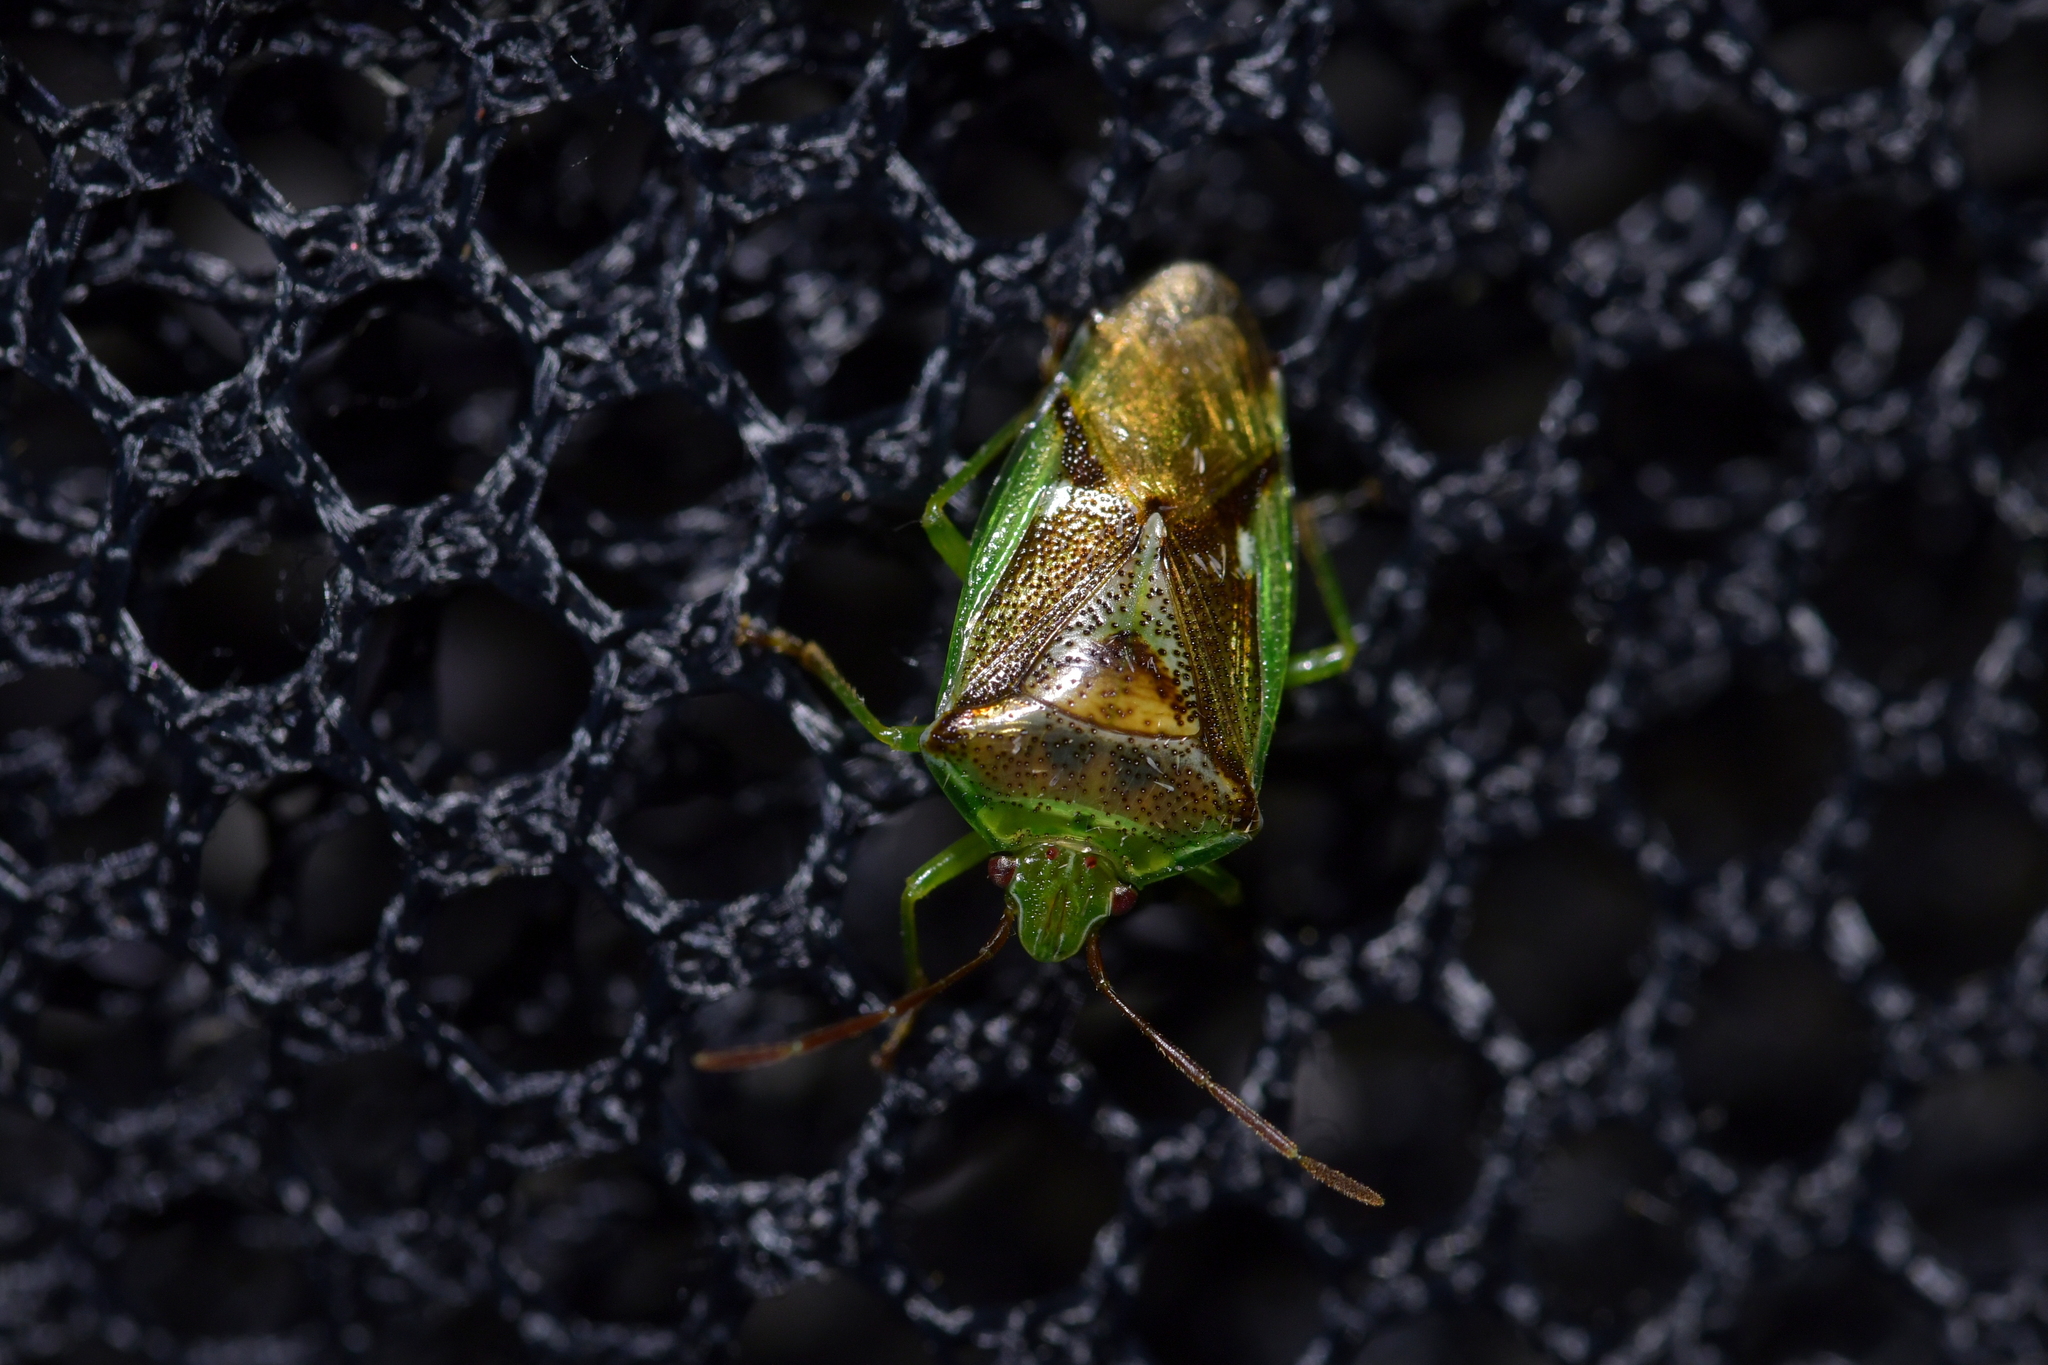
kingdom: Animalia
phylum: Arthropoda
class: Insecta
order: Hemiptera
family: Acanthosomatidae
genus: Oncacontias
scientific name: Oncacontias vittatus
